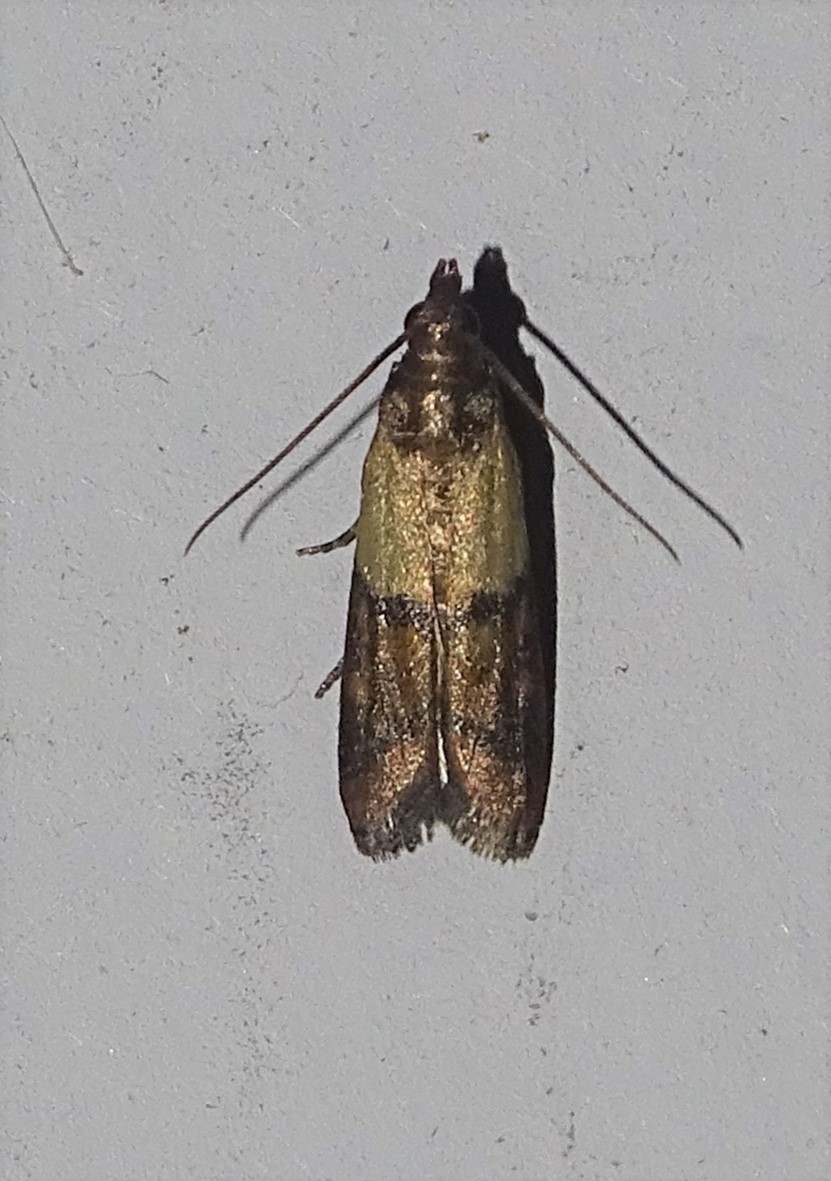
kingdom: Animalia
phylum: Arthropoda
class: Insecta
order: Lepidoptera
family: Pyralidae
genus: Plodia
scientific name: Plodia interpunctella
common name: Indian meal moth
